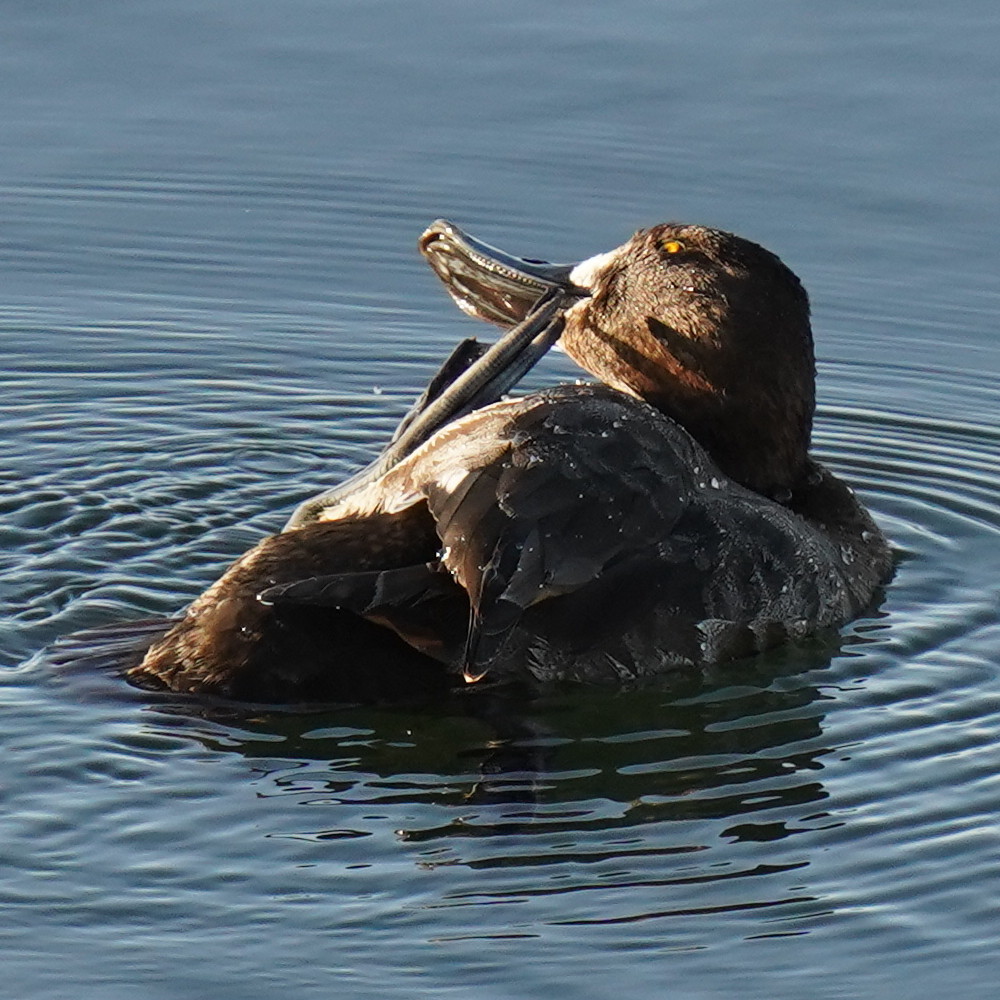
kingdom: Animalia
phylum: Chordata
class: Aves
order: Anseriformes
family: Anatidae
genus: Aythya
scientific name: Aythya marila
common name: Greater scaup
